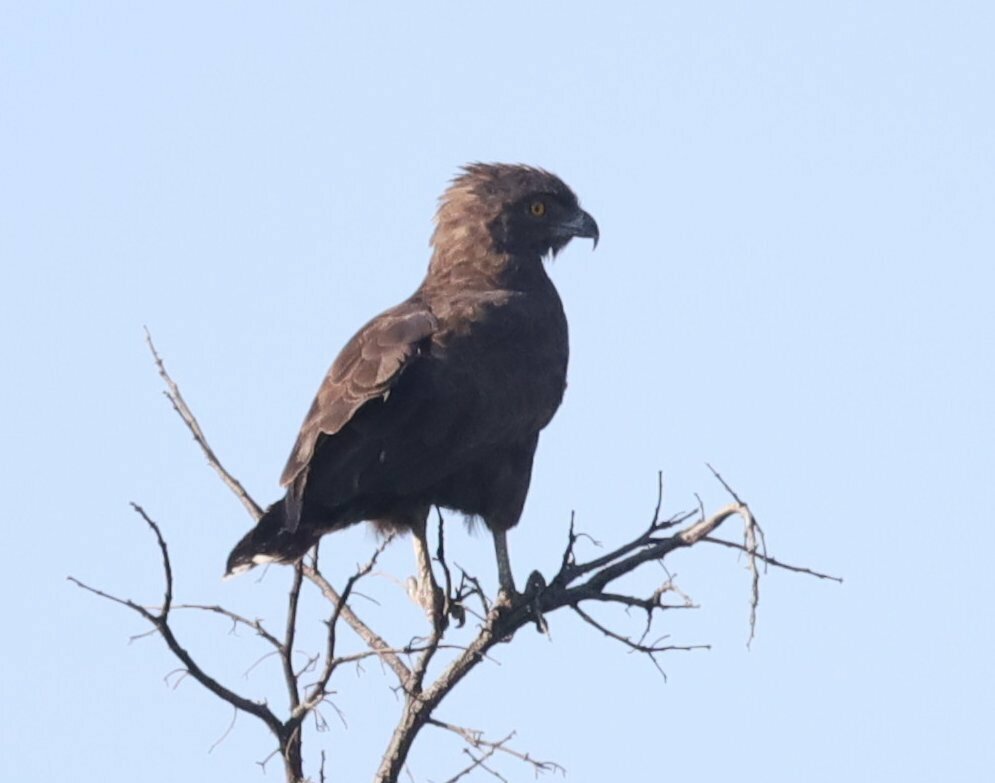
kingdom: Animalia
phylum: Chordata
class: Aves
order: Accipitriformes
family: Accipitridae
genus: Circaetus
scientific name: Circaetus cinereus
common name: Brown snake eagle
